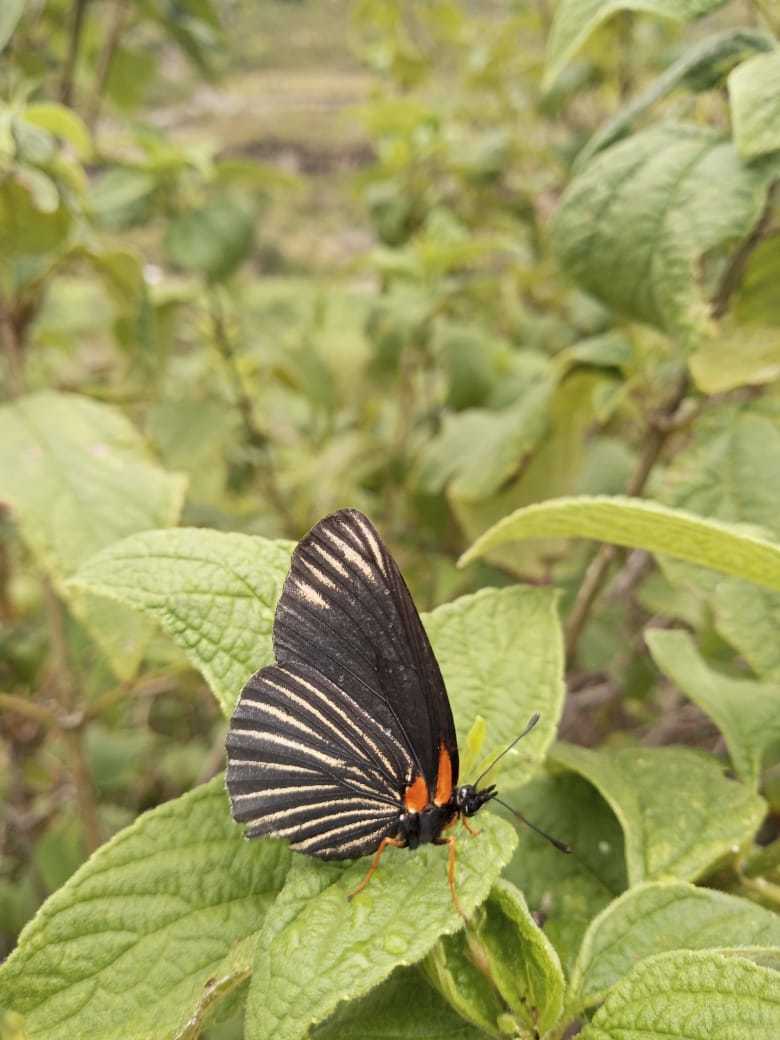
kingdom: Animalia
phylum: Arthropoda
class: Insecta
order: Lepidoptera
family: Nymphalidae
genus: Chlosyne
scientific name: Chlosyne ehrenbergii
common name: White-rayed patch
